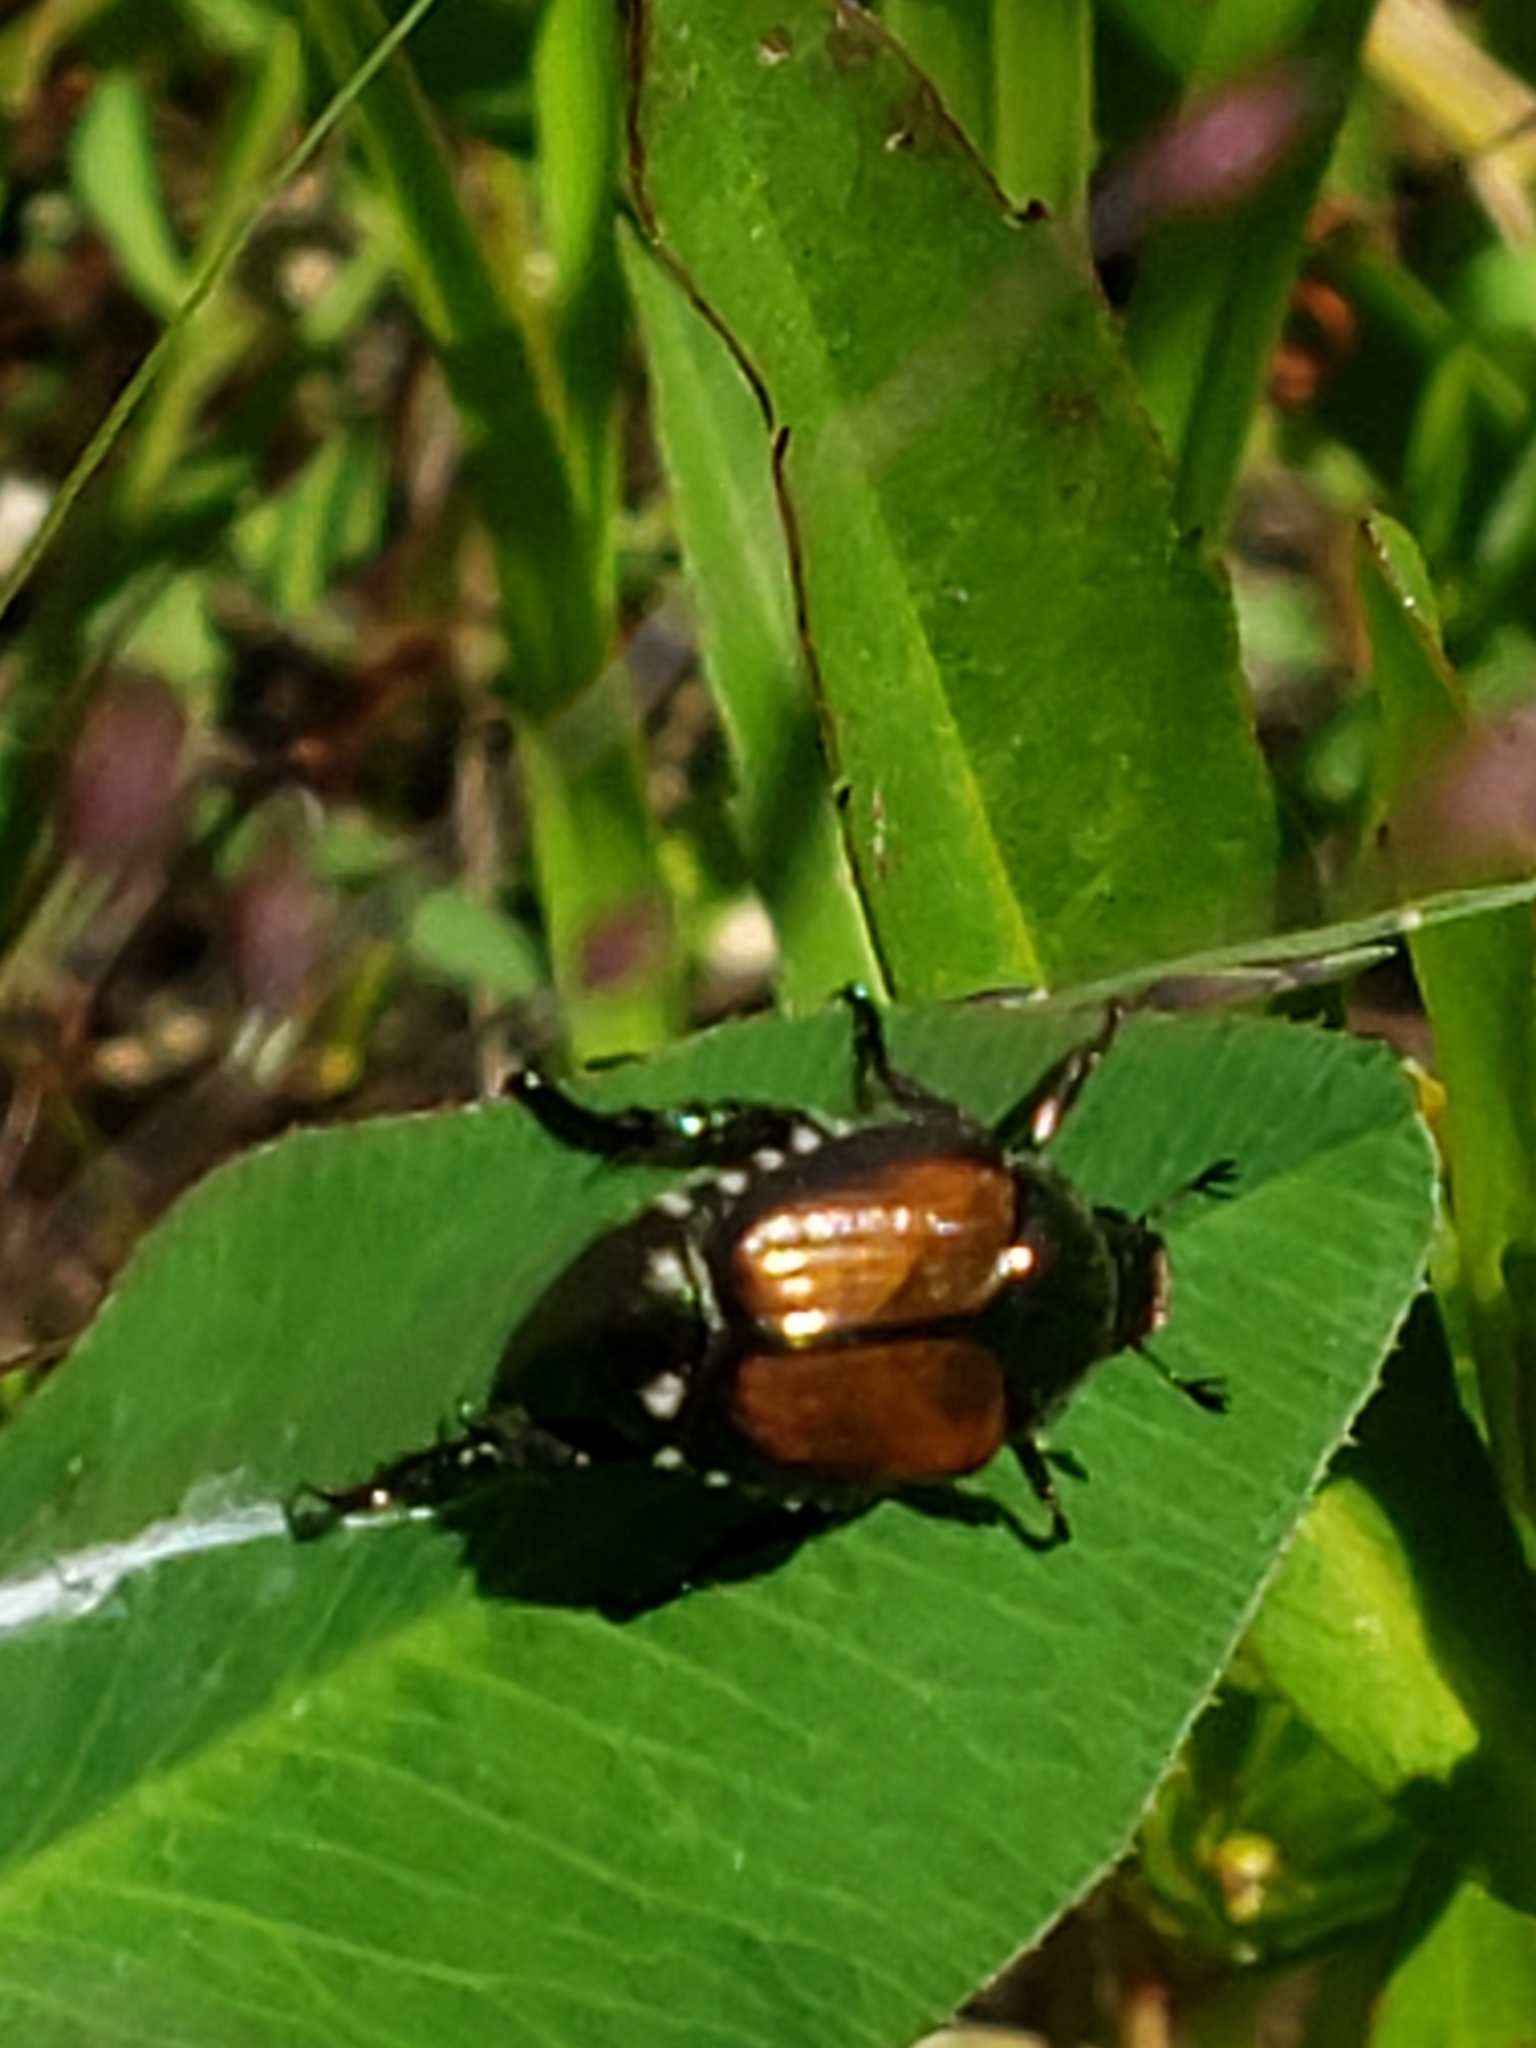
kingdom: Animalia
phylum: Arthropoda
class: Insecta
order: Coleoptera
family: Scarabaeidae
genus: Popillia
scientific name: Popillia japonica
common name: Japanese beetle
